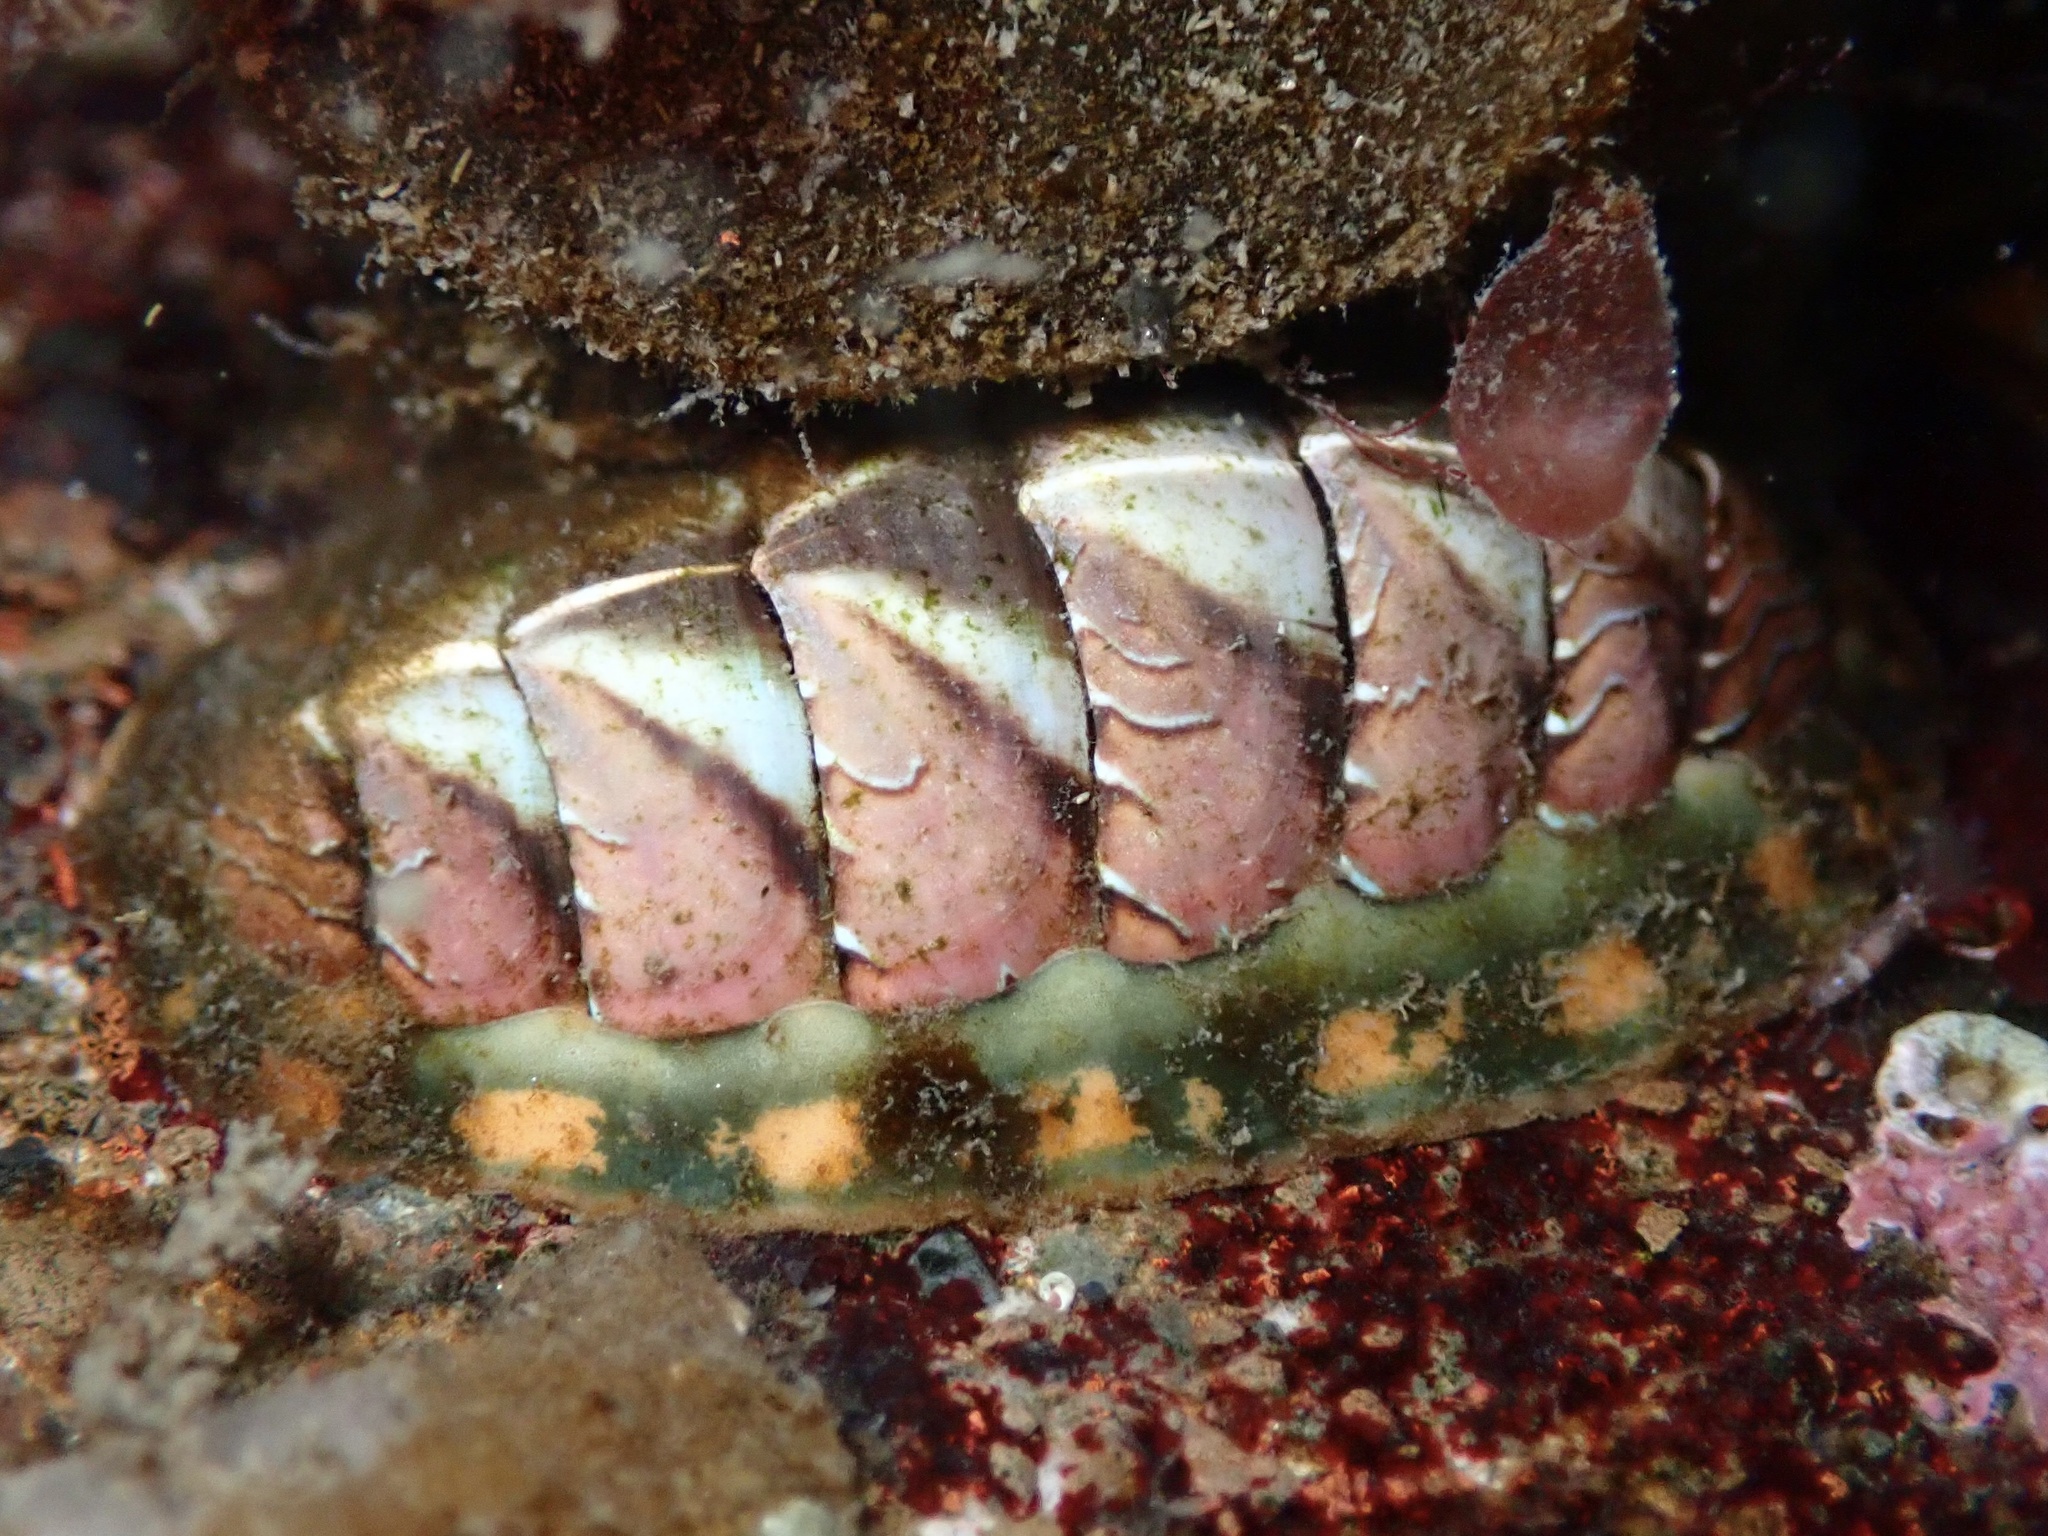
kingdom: Animalia
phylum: Mollusca
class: Polyplacophora
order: Chitonida
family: Tonicellidae
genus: Tonicella
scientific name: Tonicella lineata
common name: Lined chiton
